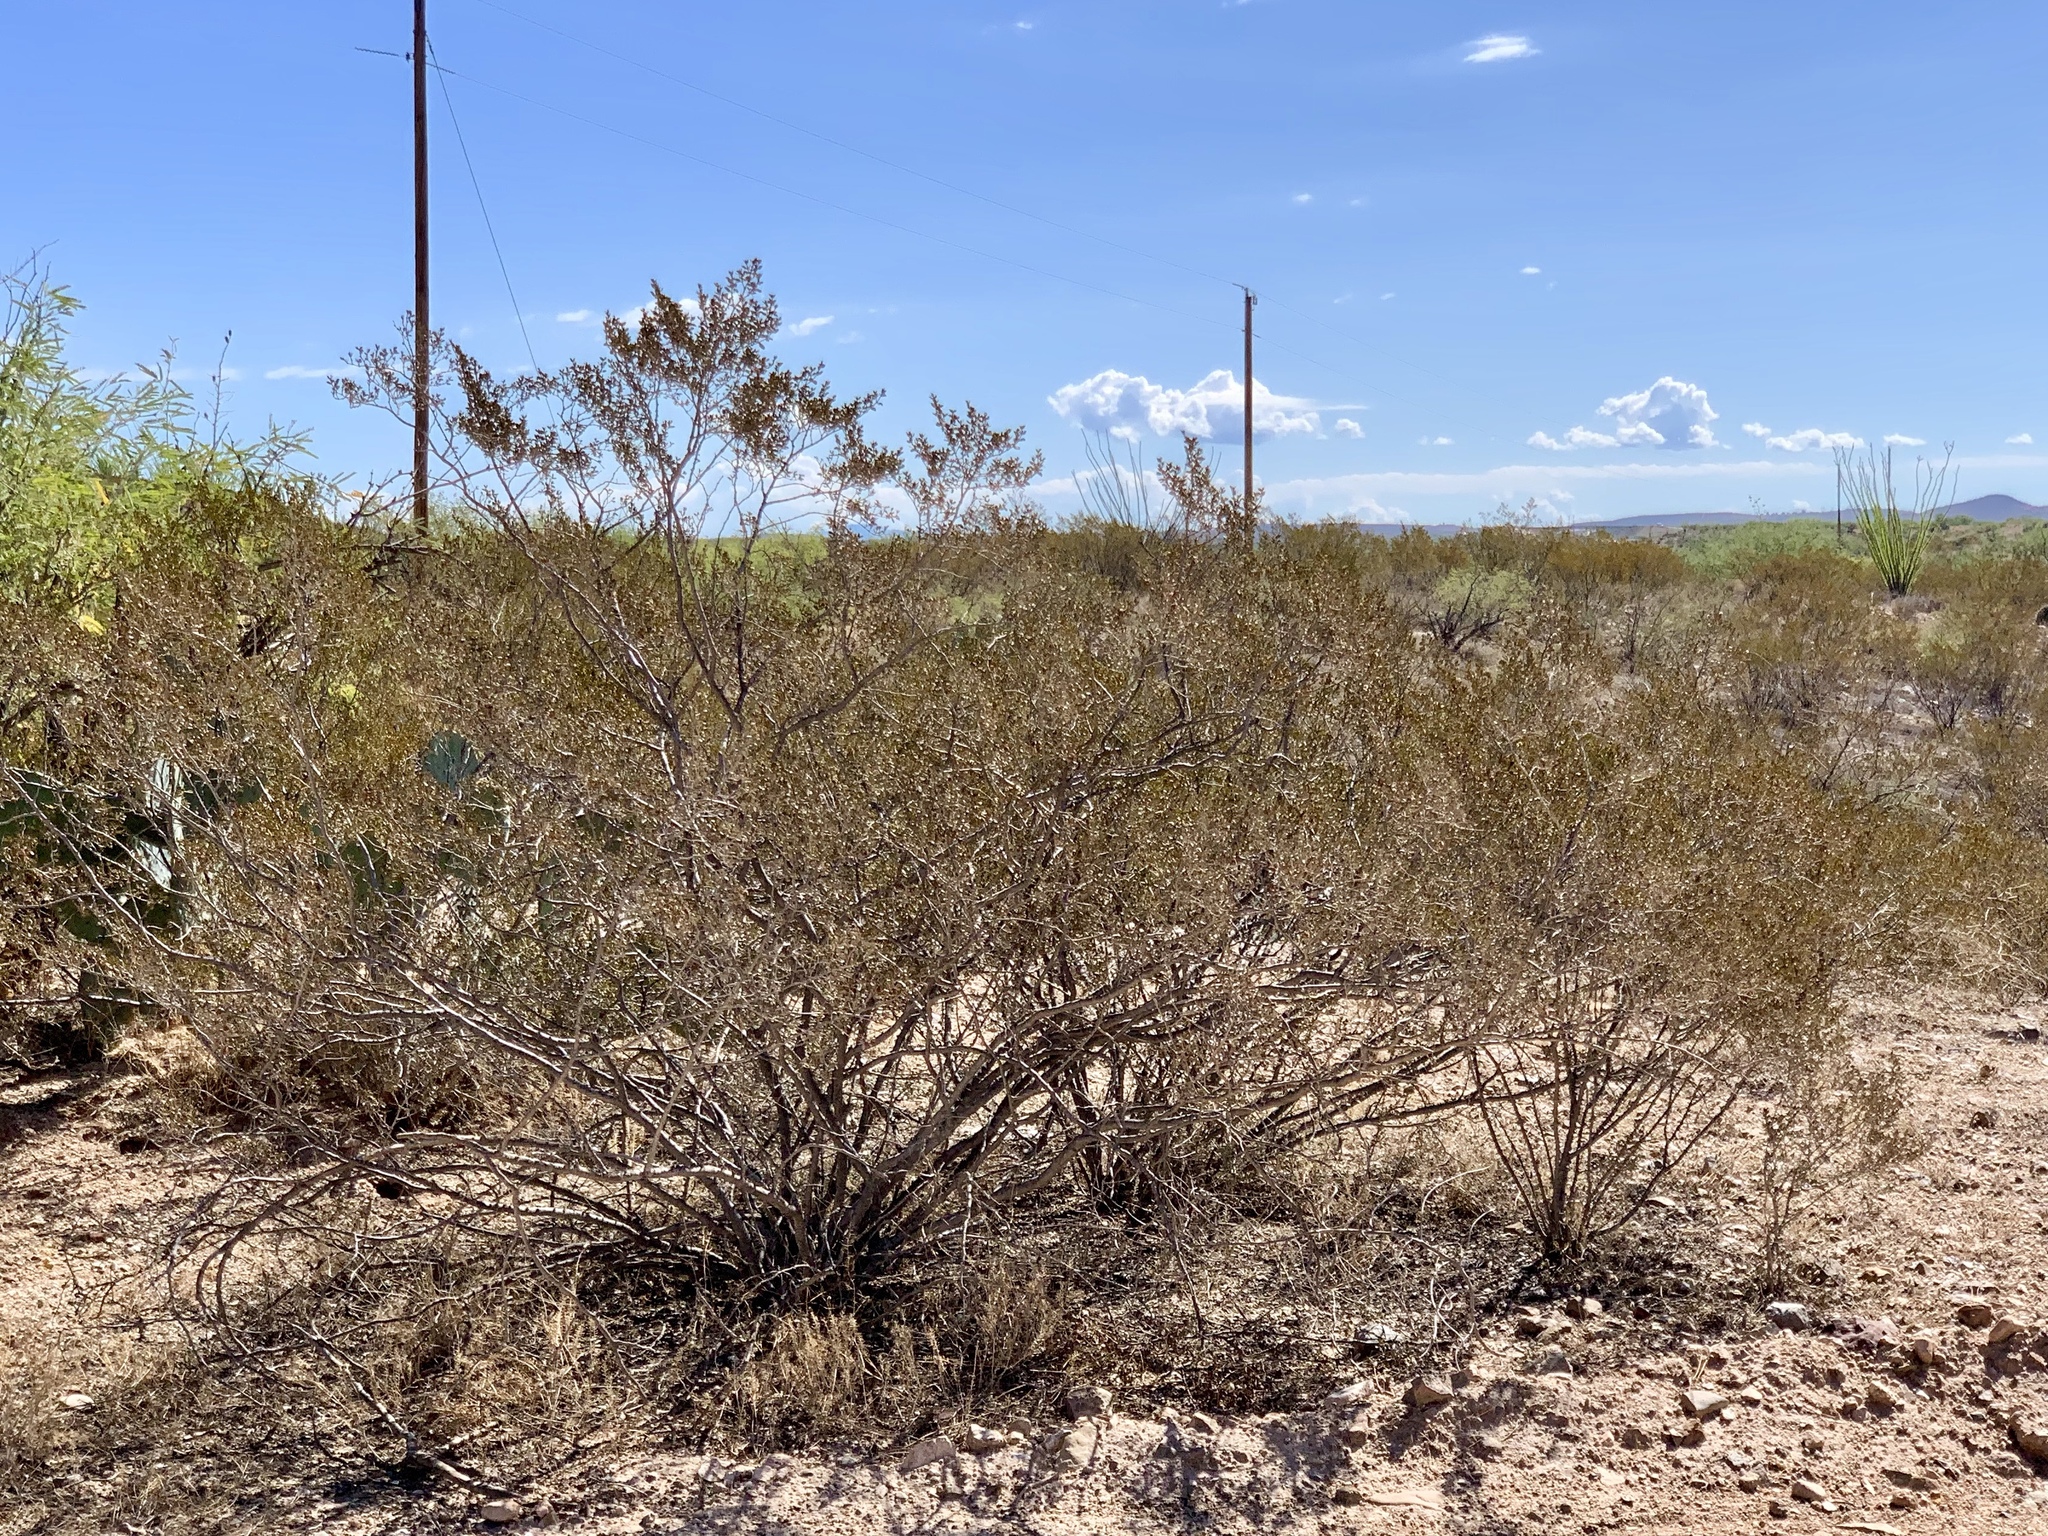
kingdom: Plantae
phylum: Tracheophyta
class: Magnoliopsida
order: Zygophyllales
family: Zygophyllaceae
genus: Larrea
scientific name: Larrea tridentata
